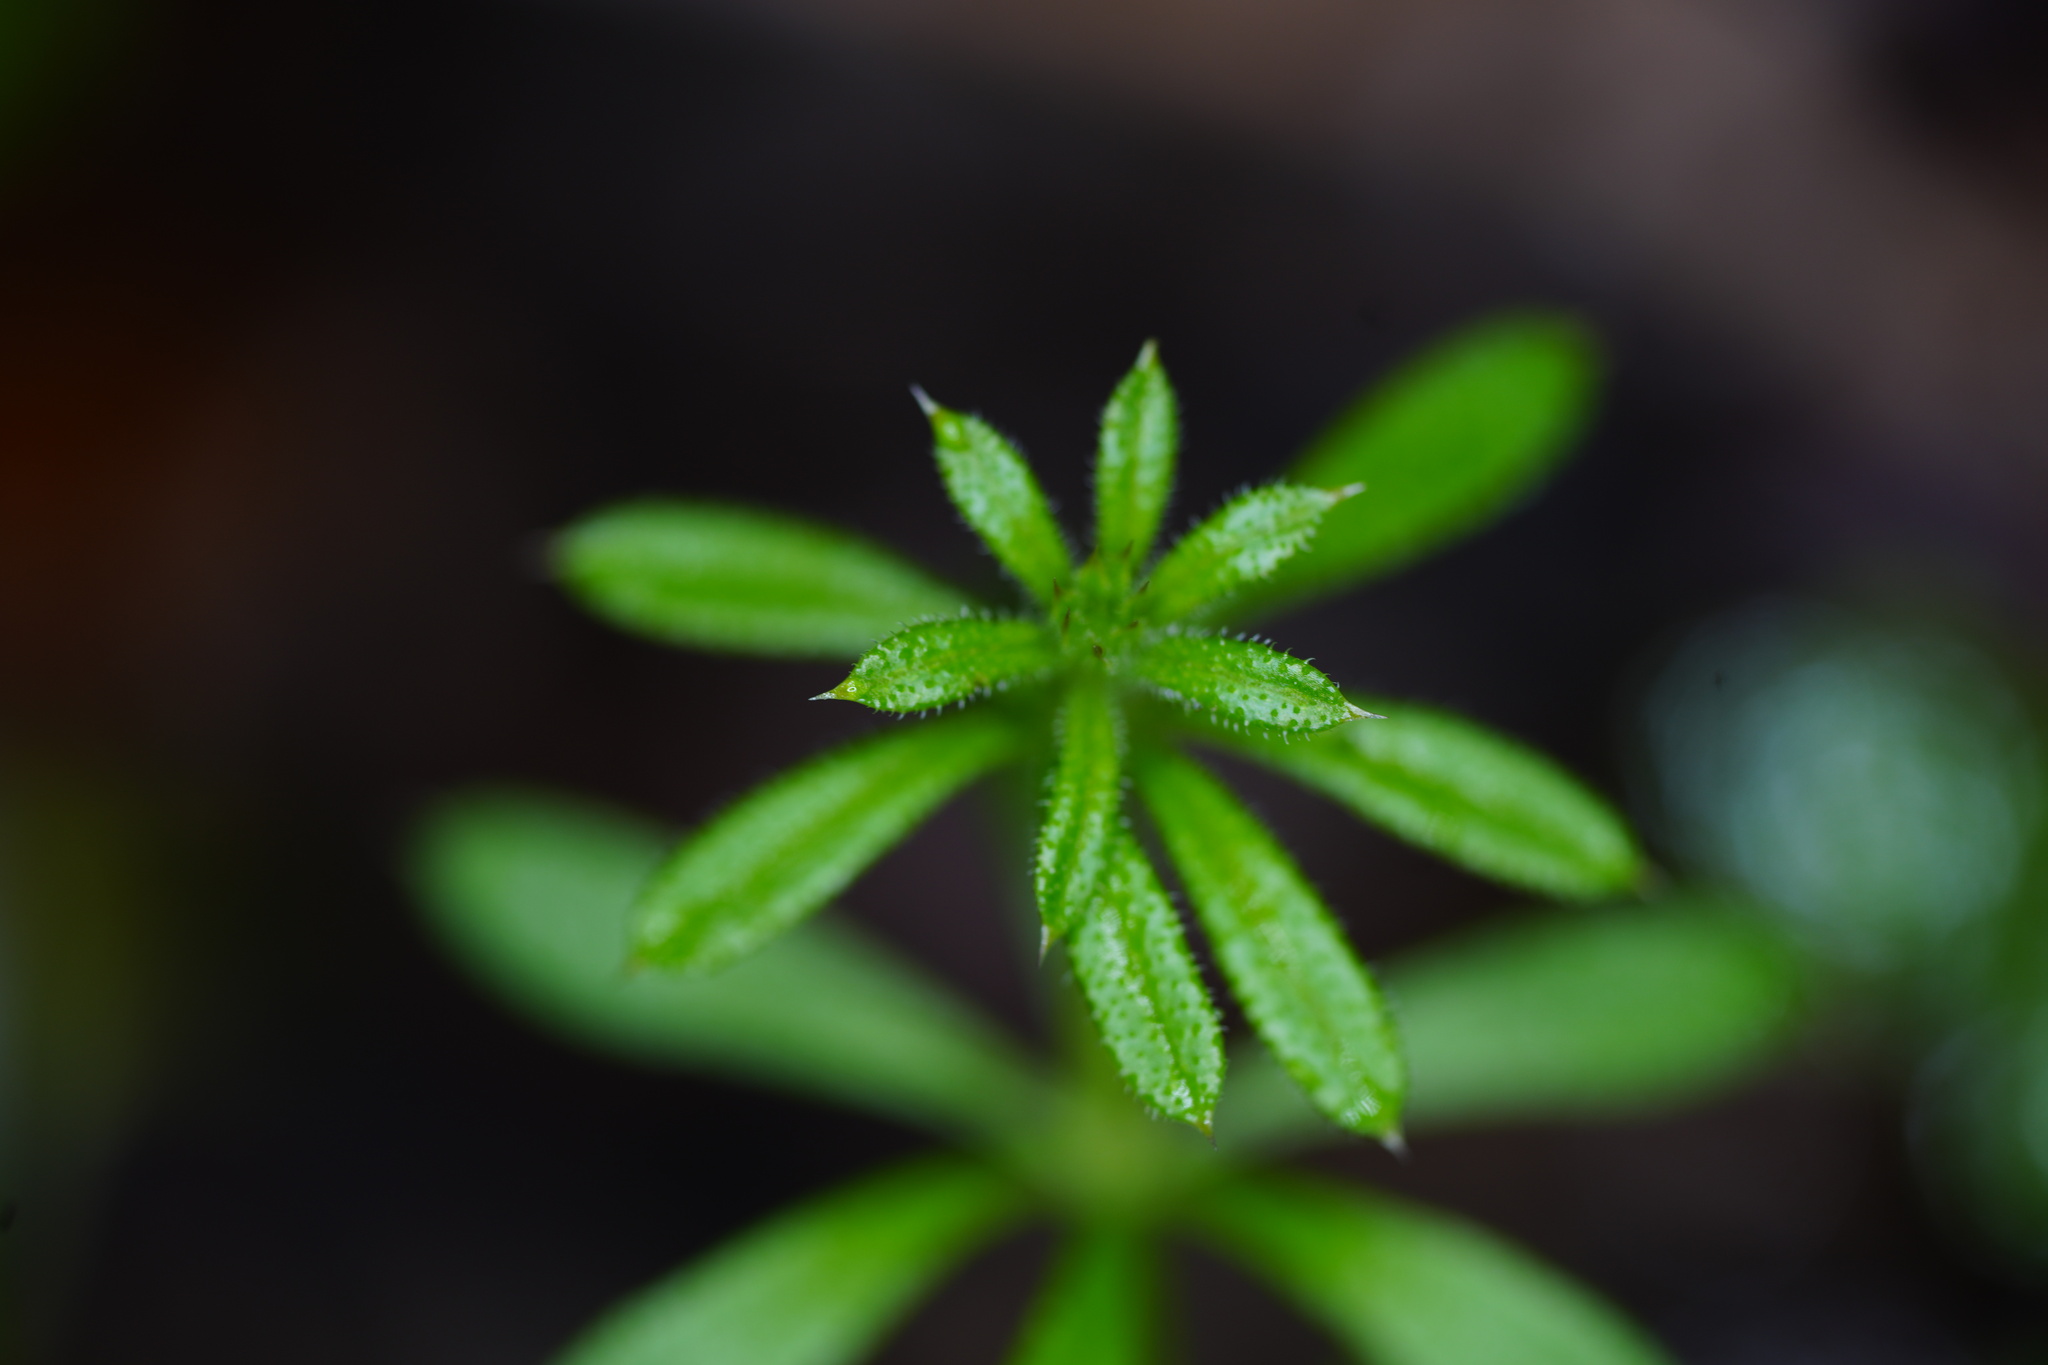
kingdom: Plantae
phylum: Tracheophyta
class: Magnoliopsida
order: Gentianales
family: Rubiaceae
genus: Galium
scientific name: Galium aparine
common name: Cleavers
